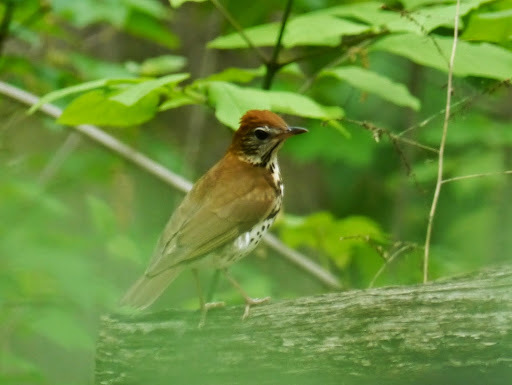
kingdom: Animalia
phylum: Chordata
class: Aves
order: Passeriformes
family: Turdidae
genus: Hylocichla
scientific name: Hylocichla mustelina
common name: Wood thrush
